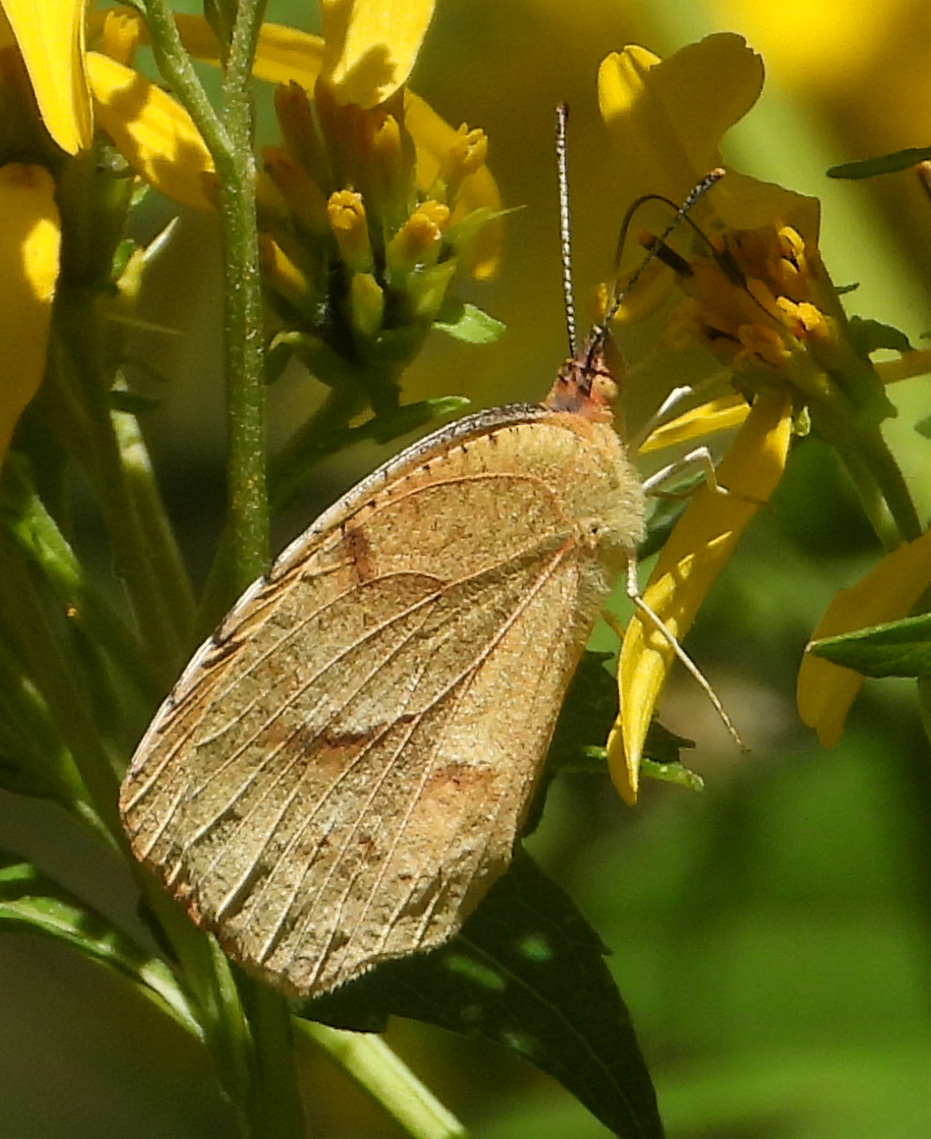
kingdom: Animalia
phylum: Arthropoda
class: Insecta
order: Lepidoptera
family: Pieridae
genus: Abaeis
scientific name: Abaeis nicippe
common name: Sleepy orange
